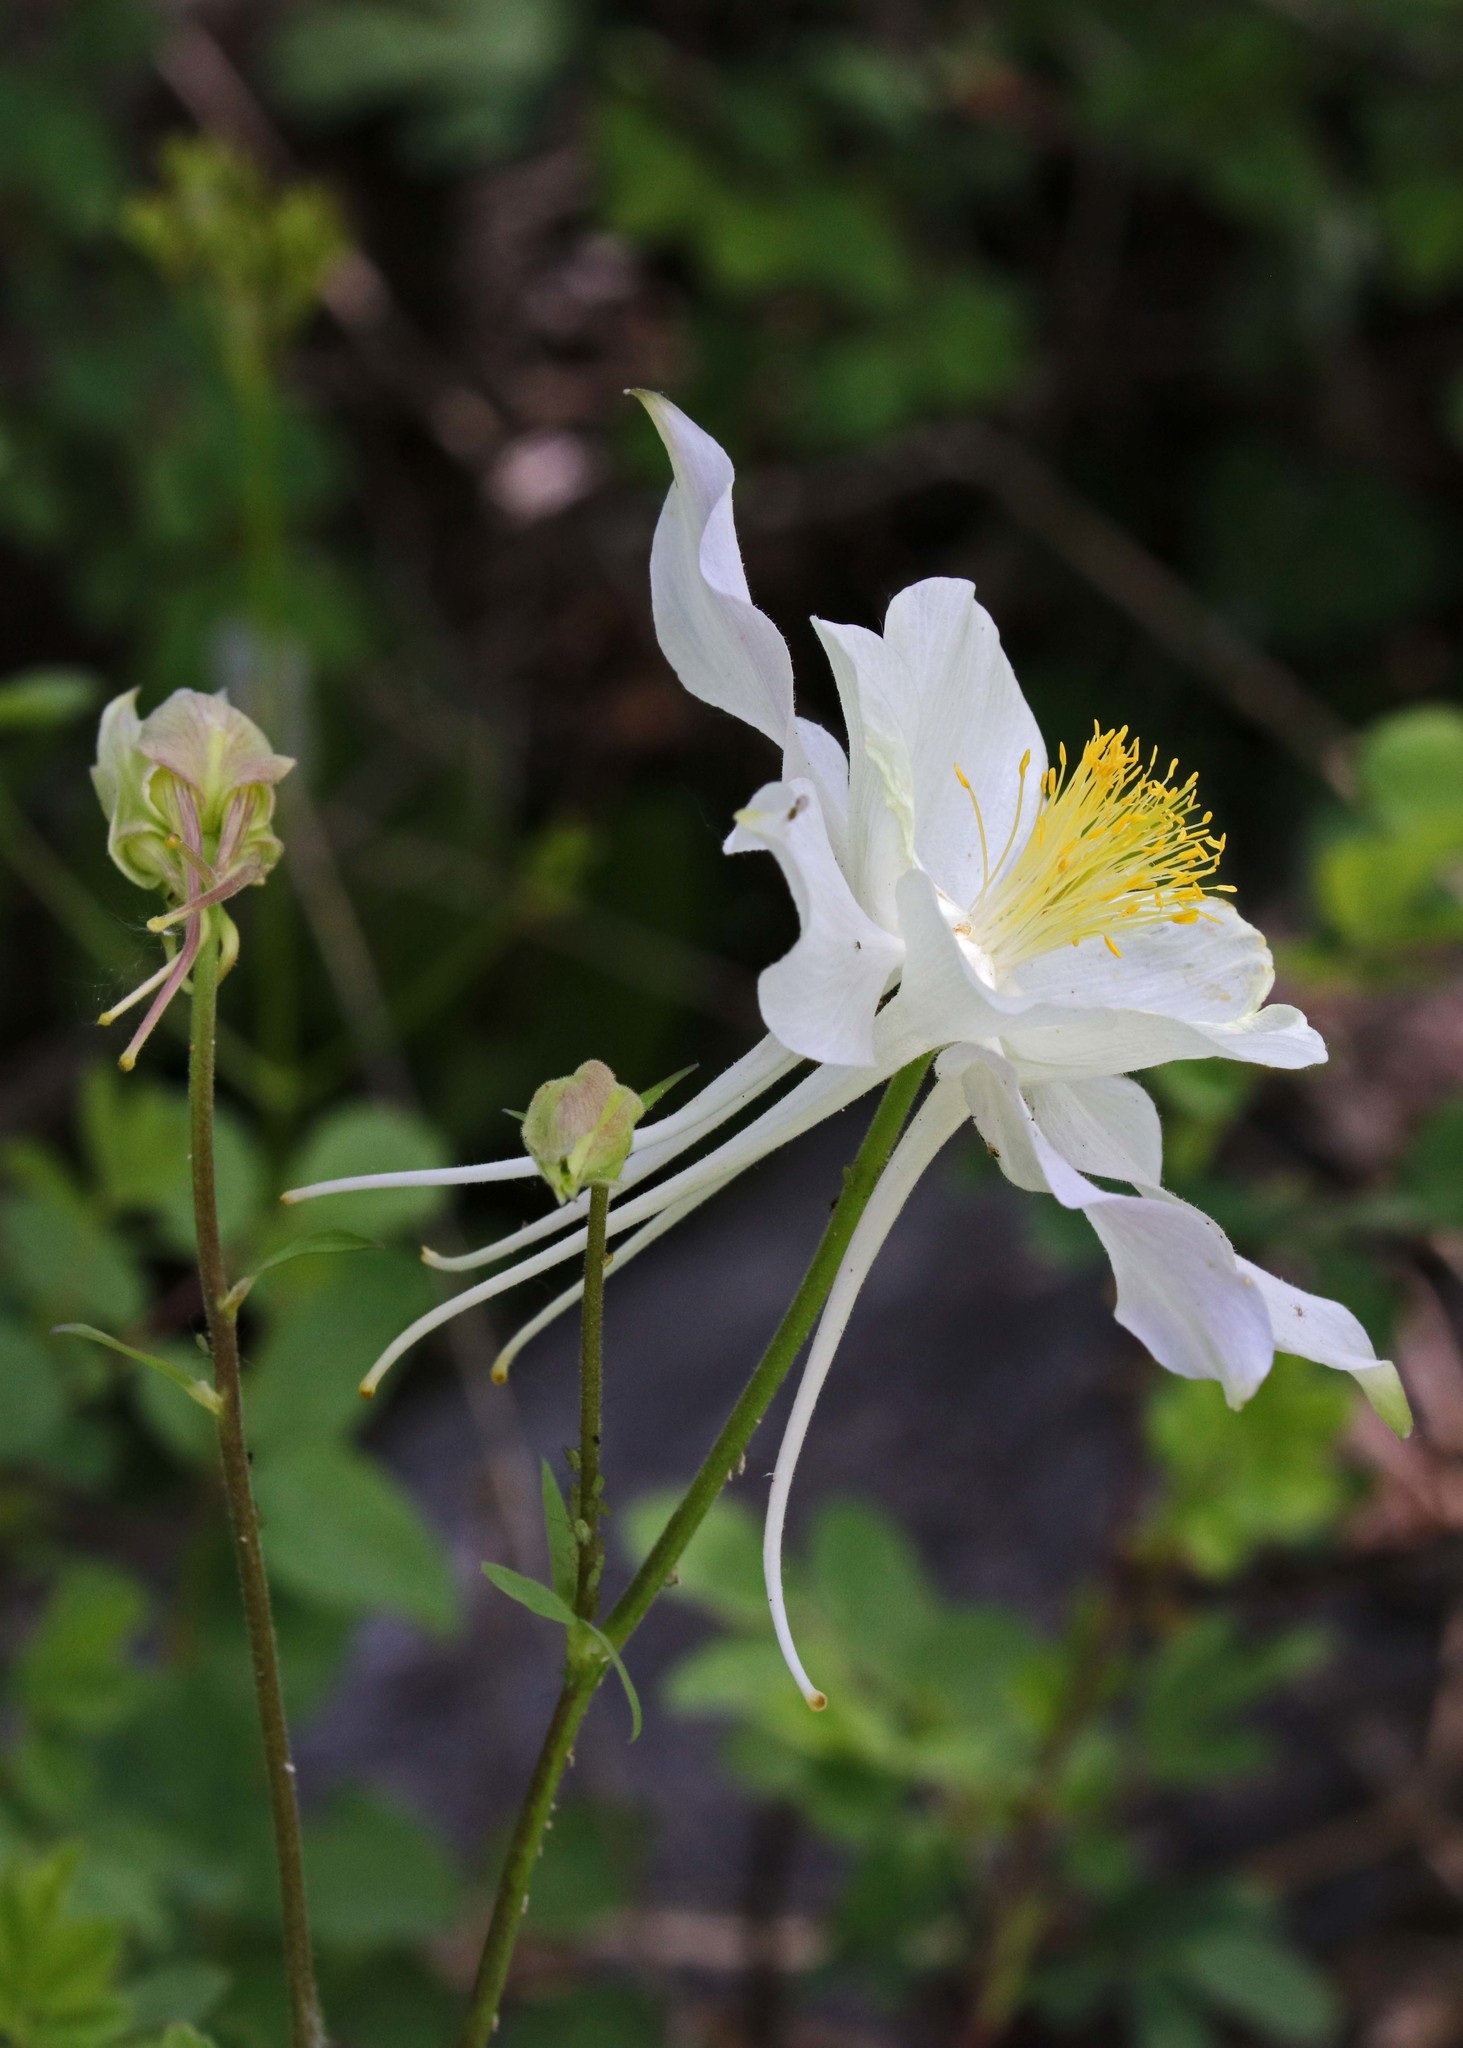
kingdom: Plantae
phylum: Tracheophyta
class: Magnoliopsida
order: Ranunculales
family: Ranunculaceae
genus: Aquilegia
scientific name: Aquilegia coerulea
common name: Rocky mountain columbine
